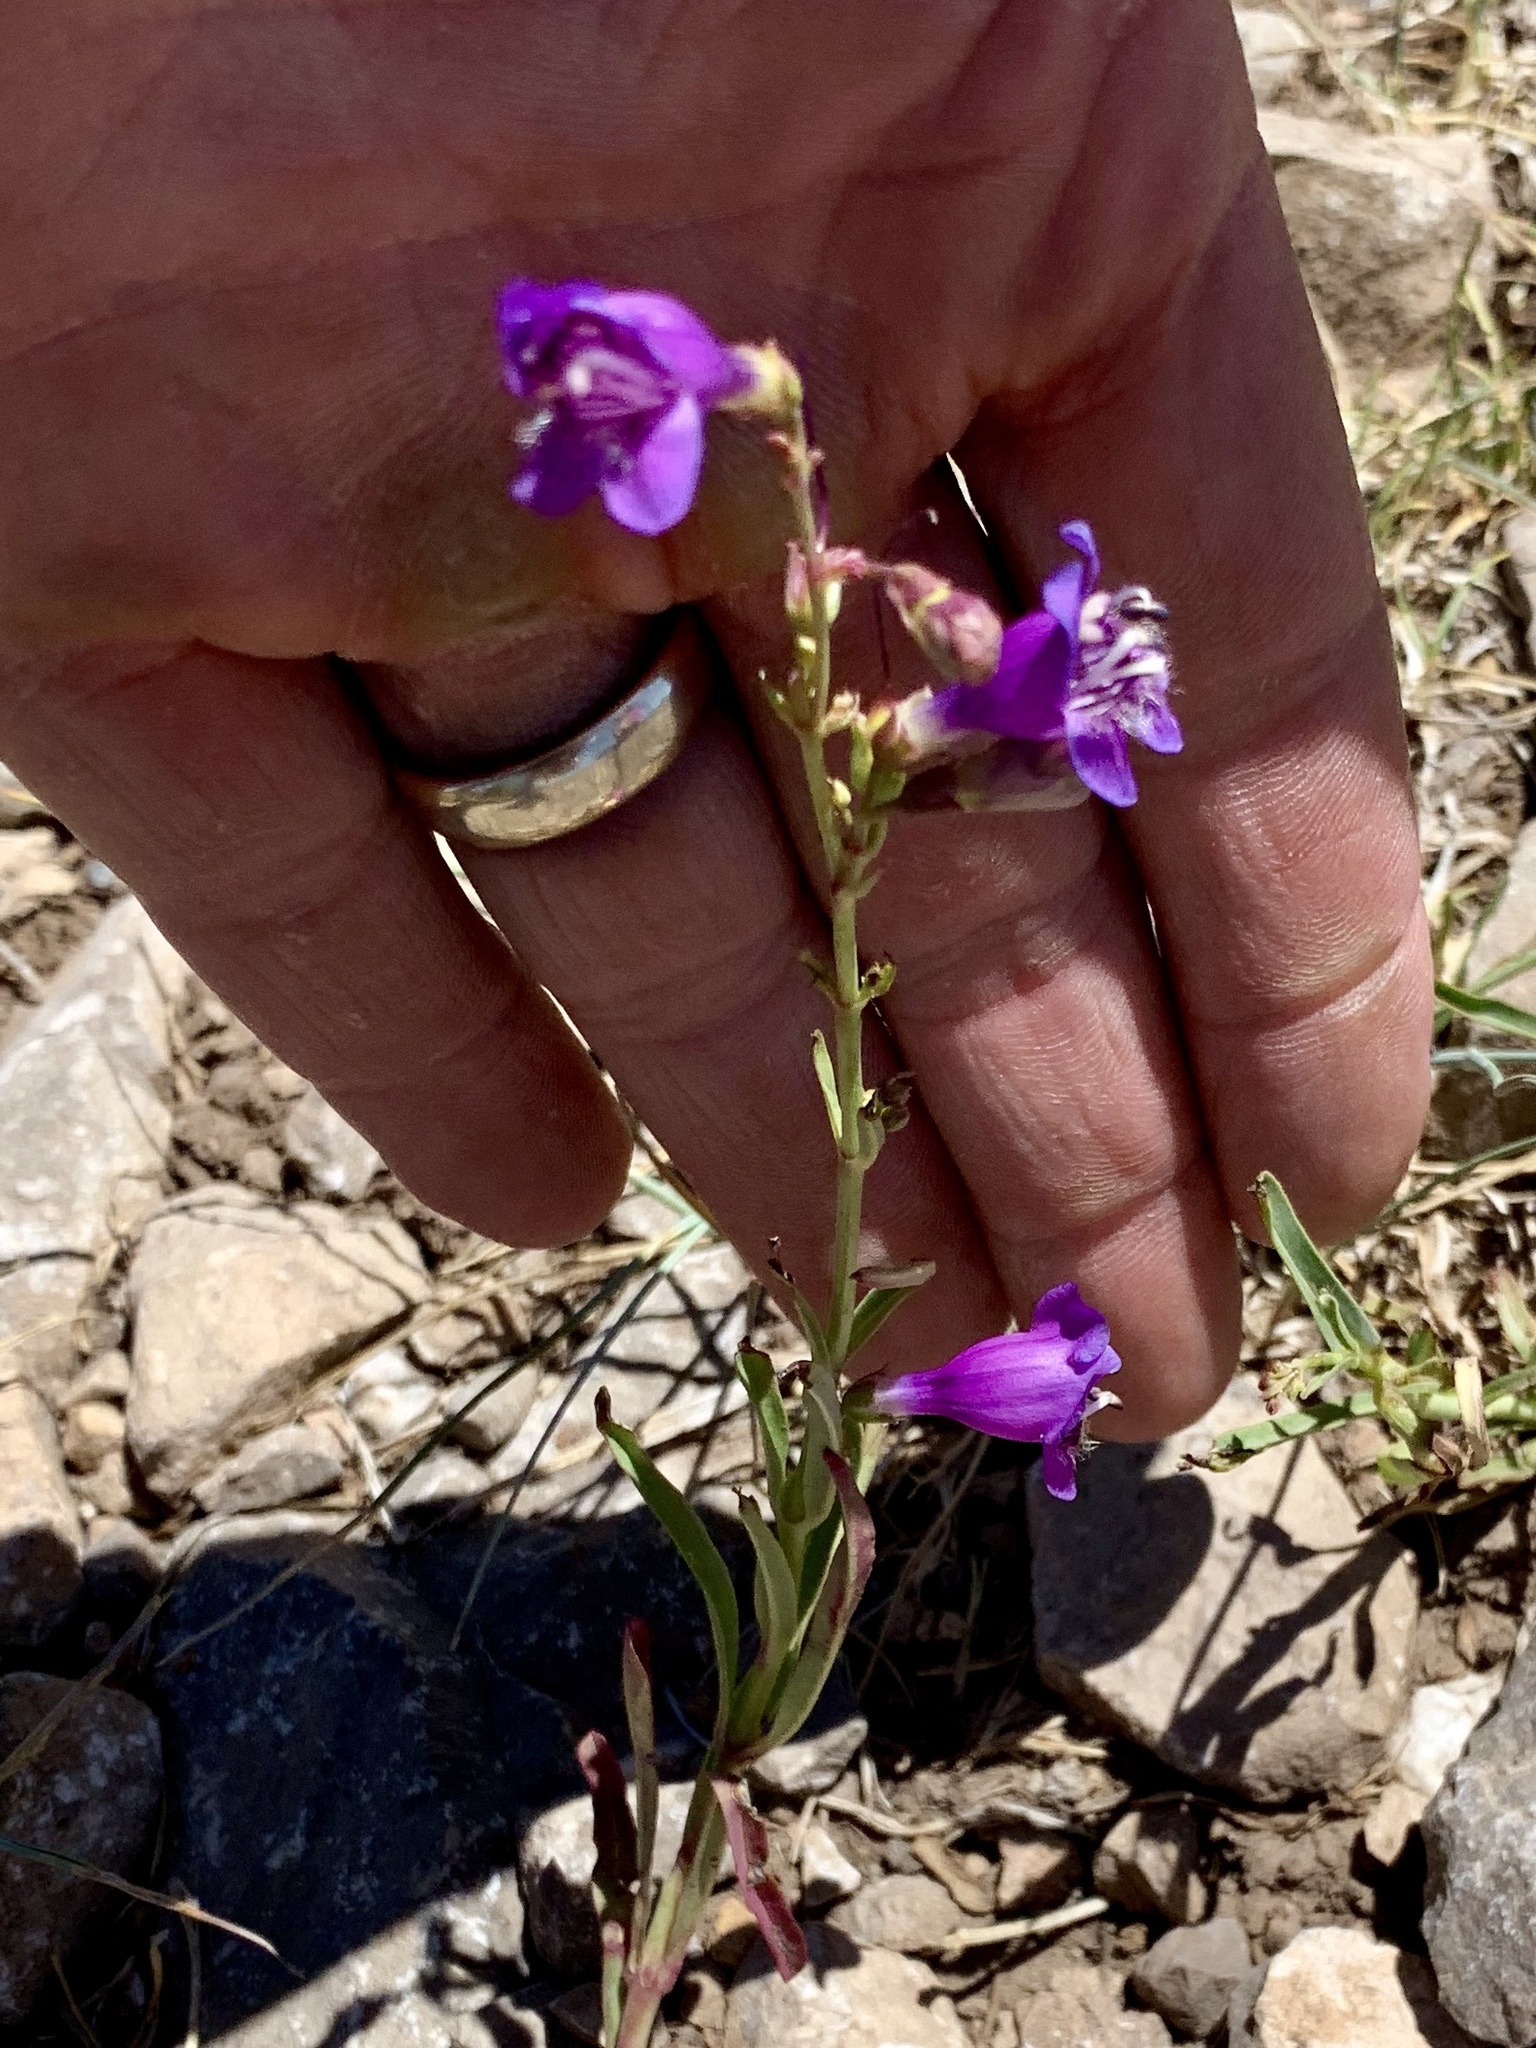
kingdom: Plantae
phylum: Tracheophyta
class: Magnoliopsida
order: Lamiales
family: Plantaginaceae
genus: Penstemon
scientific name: Penstemon neomexicanus
